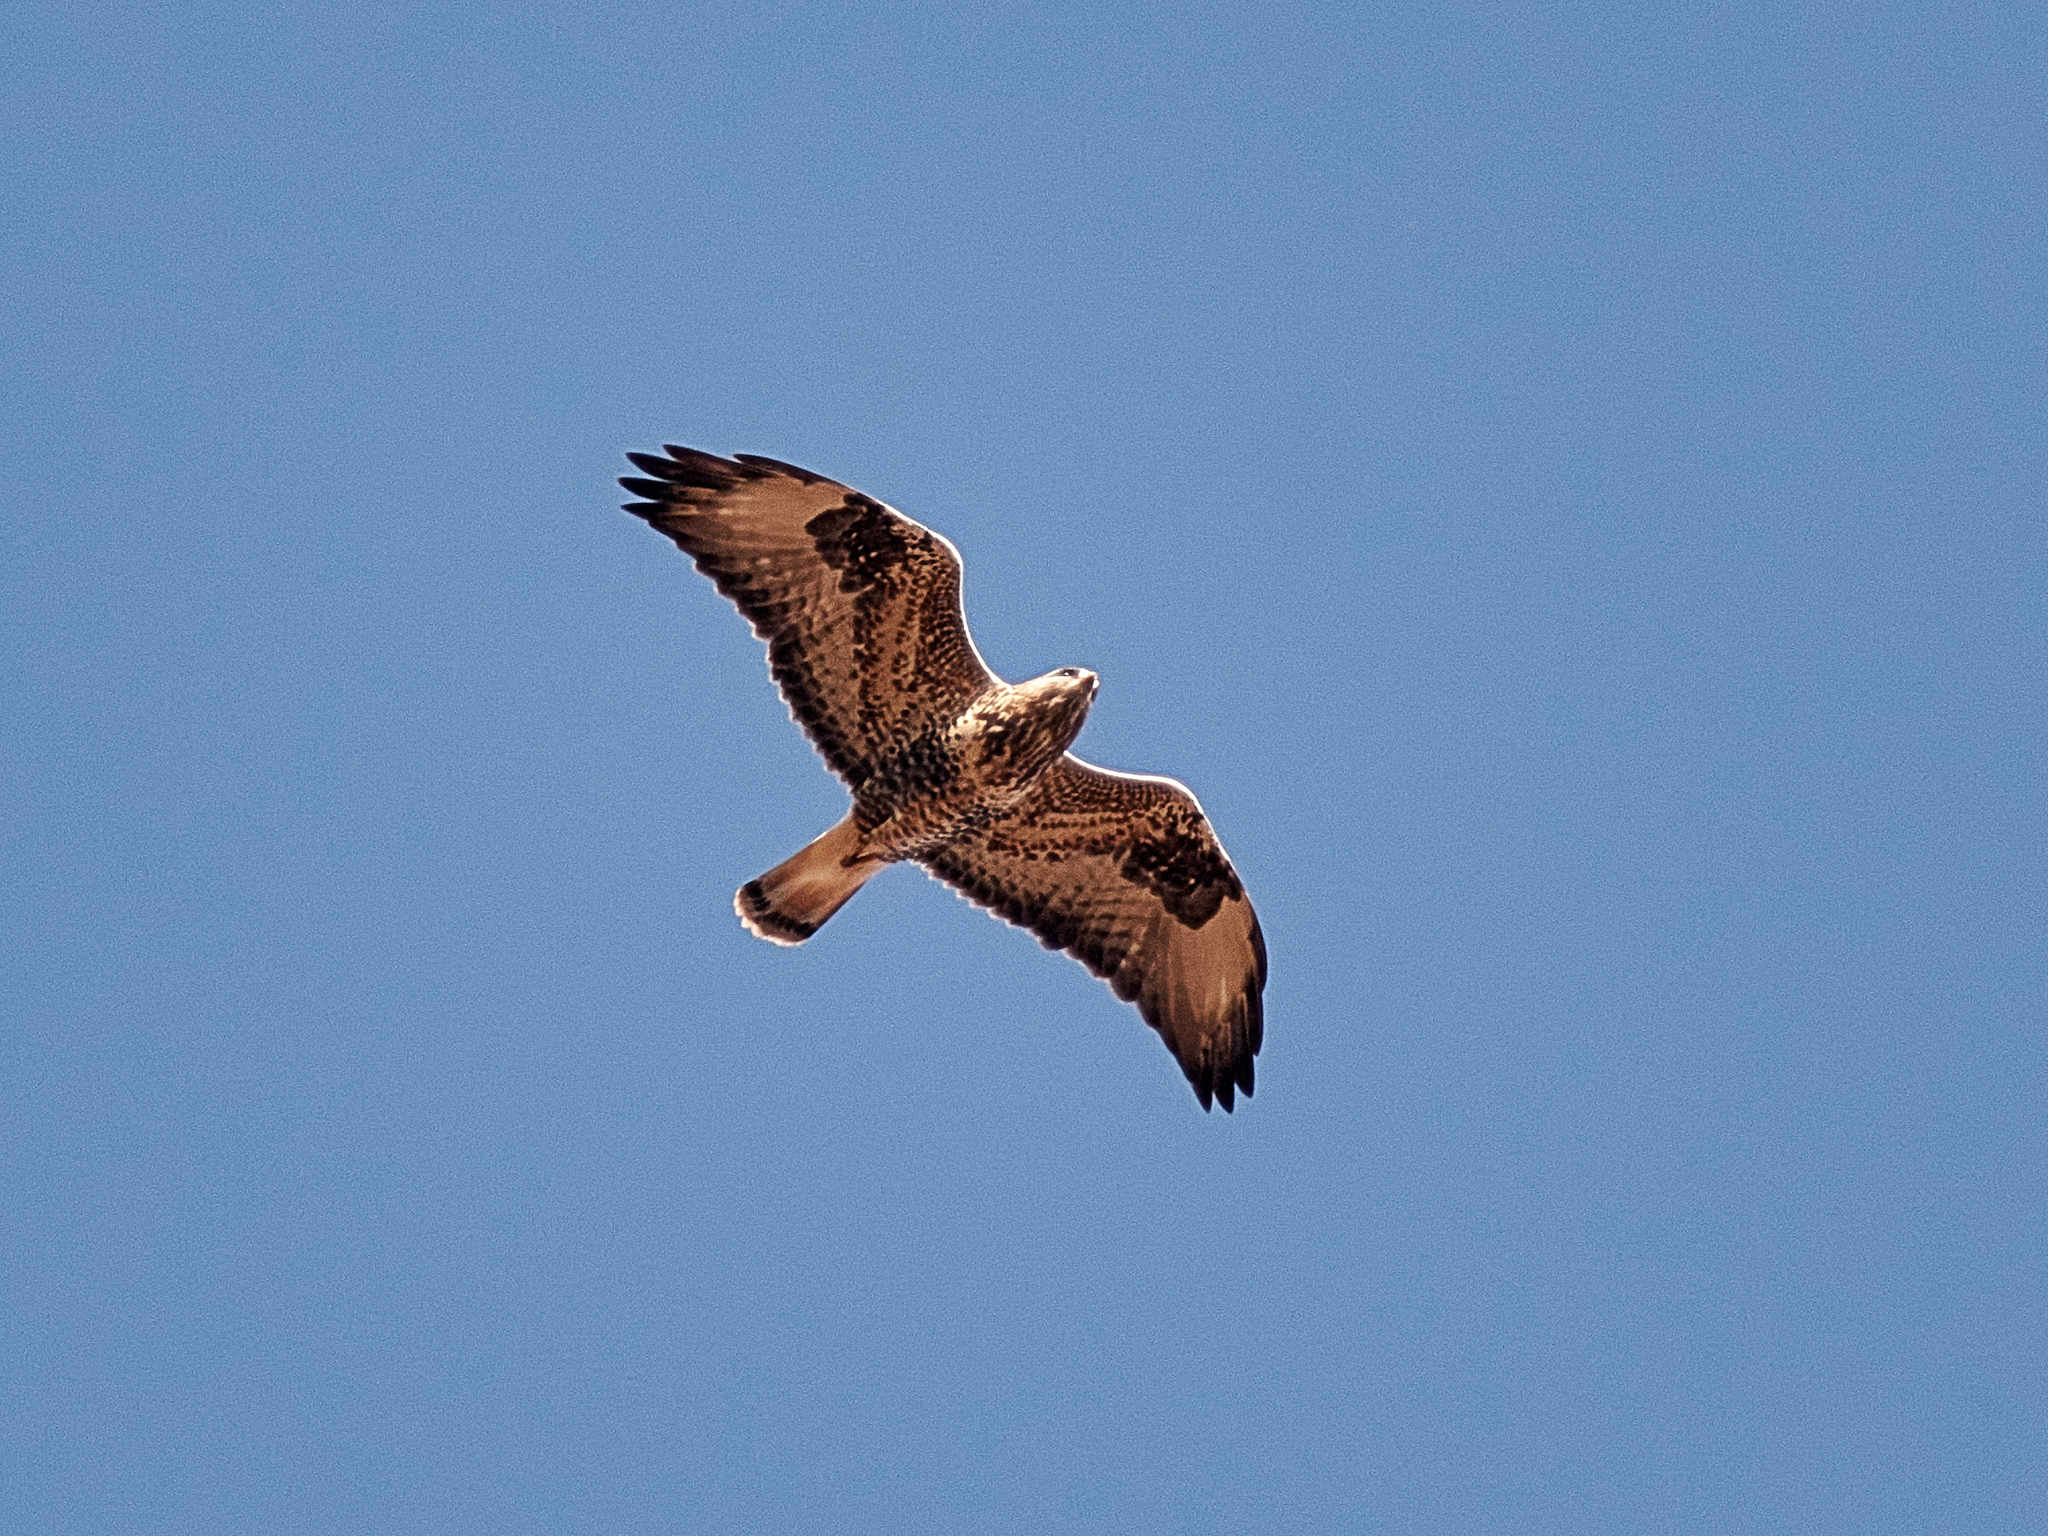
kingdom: Animalia
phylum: Chordata
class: Aves
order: Accipitriformes
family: Accipitridae
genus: Buteo
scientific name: Buteo lagopus
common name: Rough-legged buzzard
